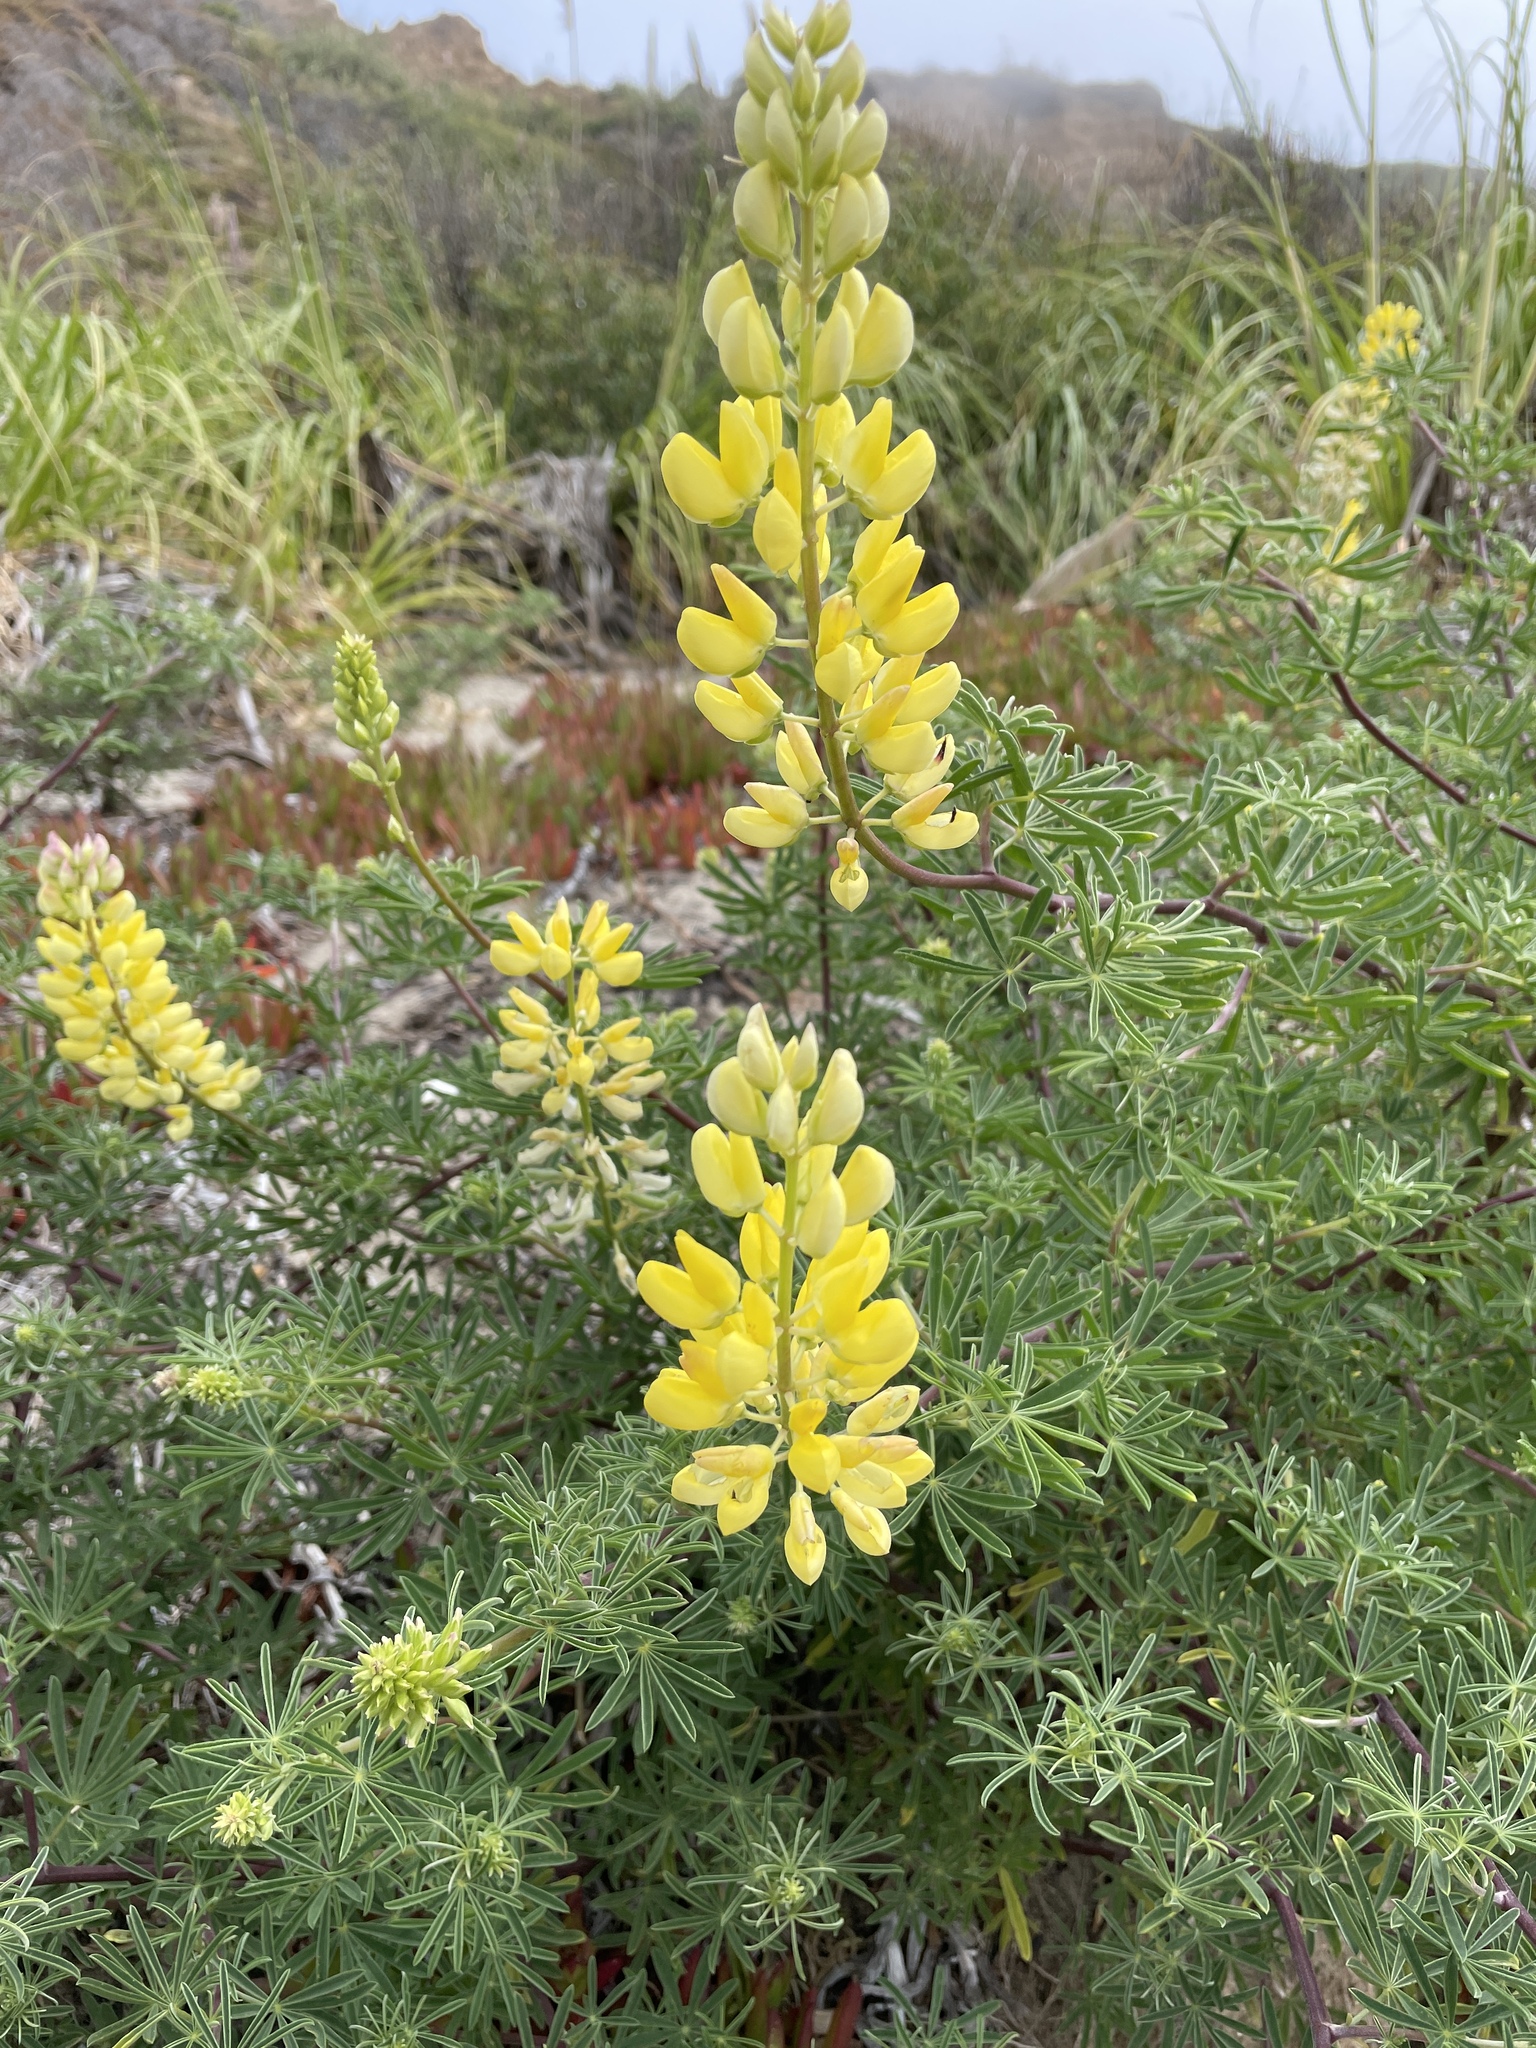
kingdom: Plantae
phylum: Tracheophyta
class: Magnoliopsida
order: Fabales
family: Fabaceae
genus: Lupinus
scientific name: Lupinus arboreus
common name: Yellow bush lupine
